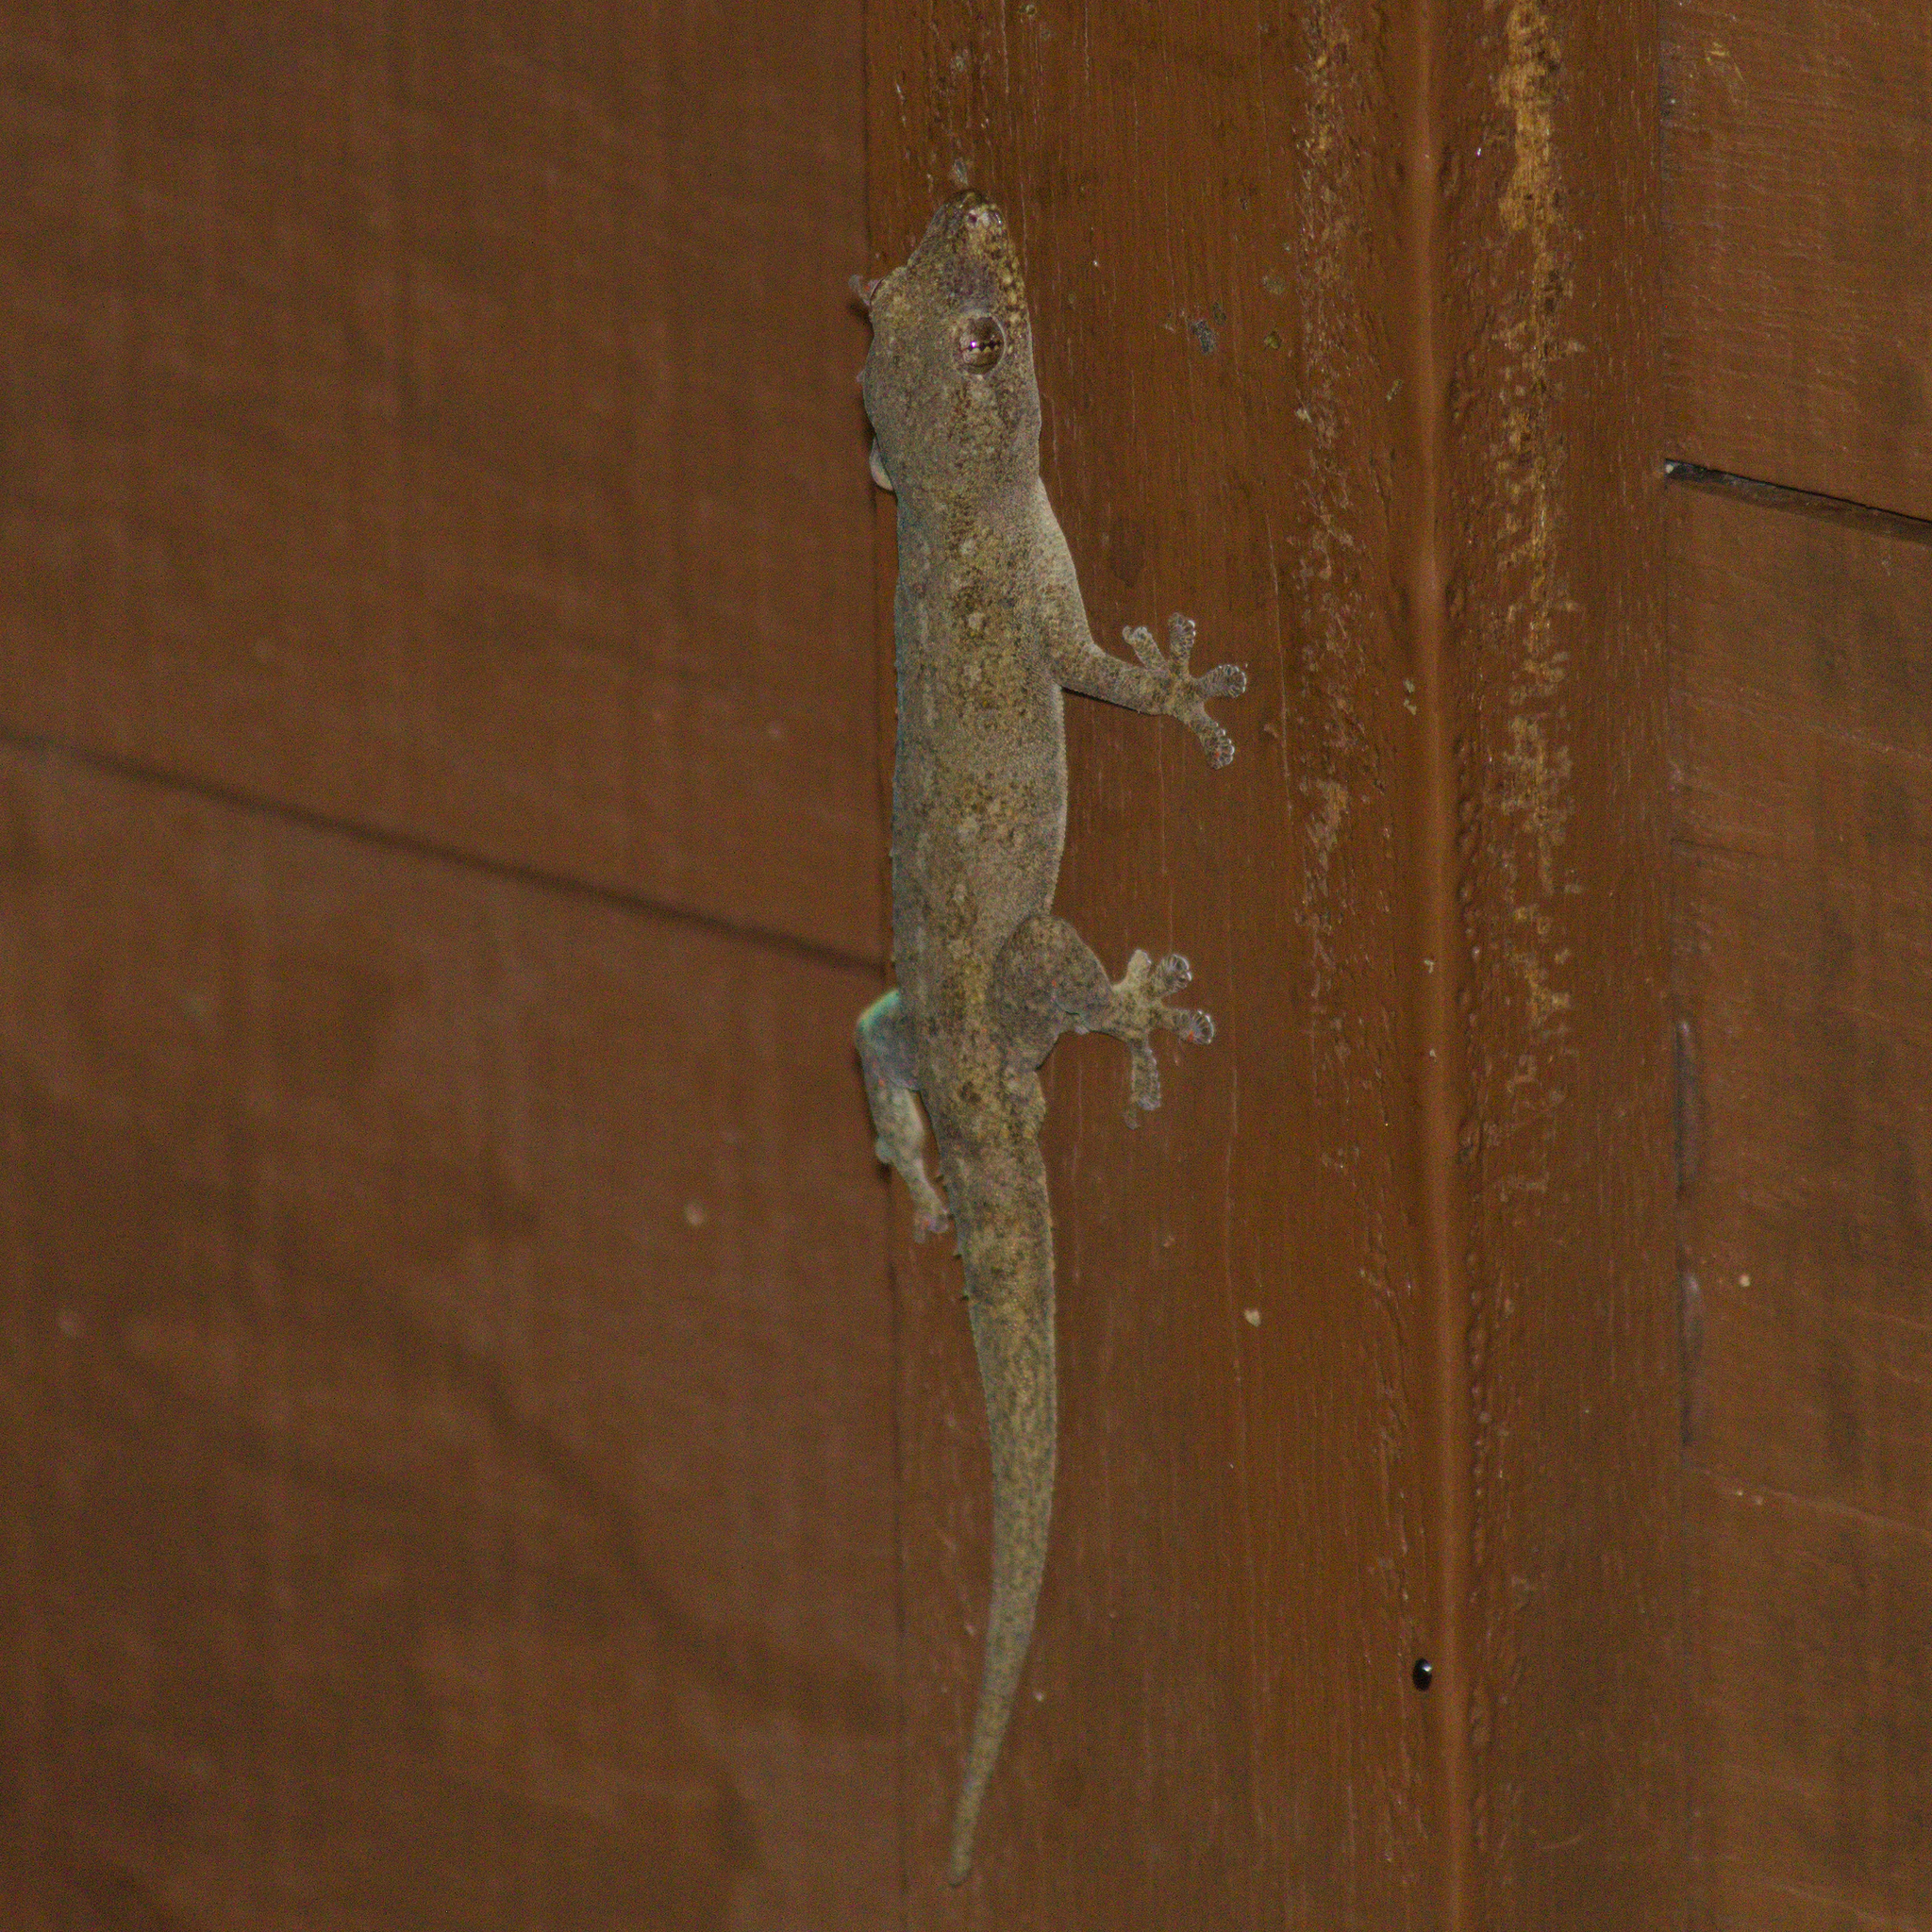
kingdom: Animalia
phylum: Chordata
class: Squamata
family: Gekkonidae
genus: Hemidactylus
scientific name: Hemidactylus frenatus
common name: Common house gecko
